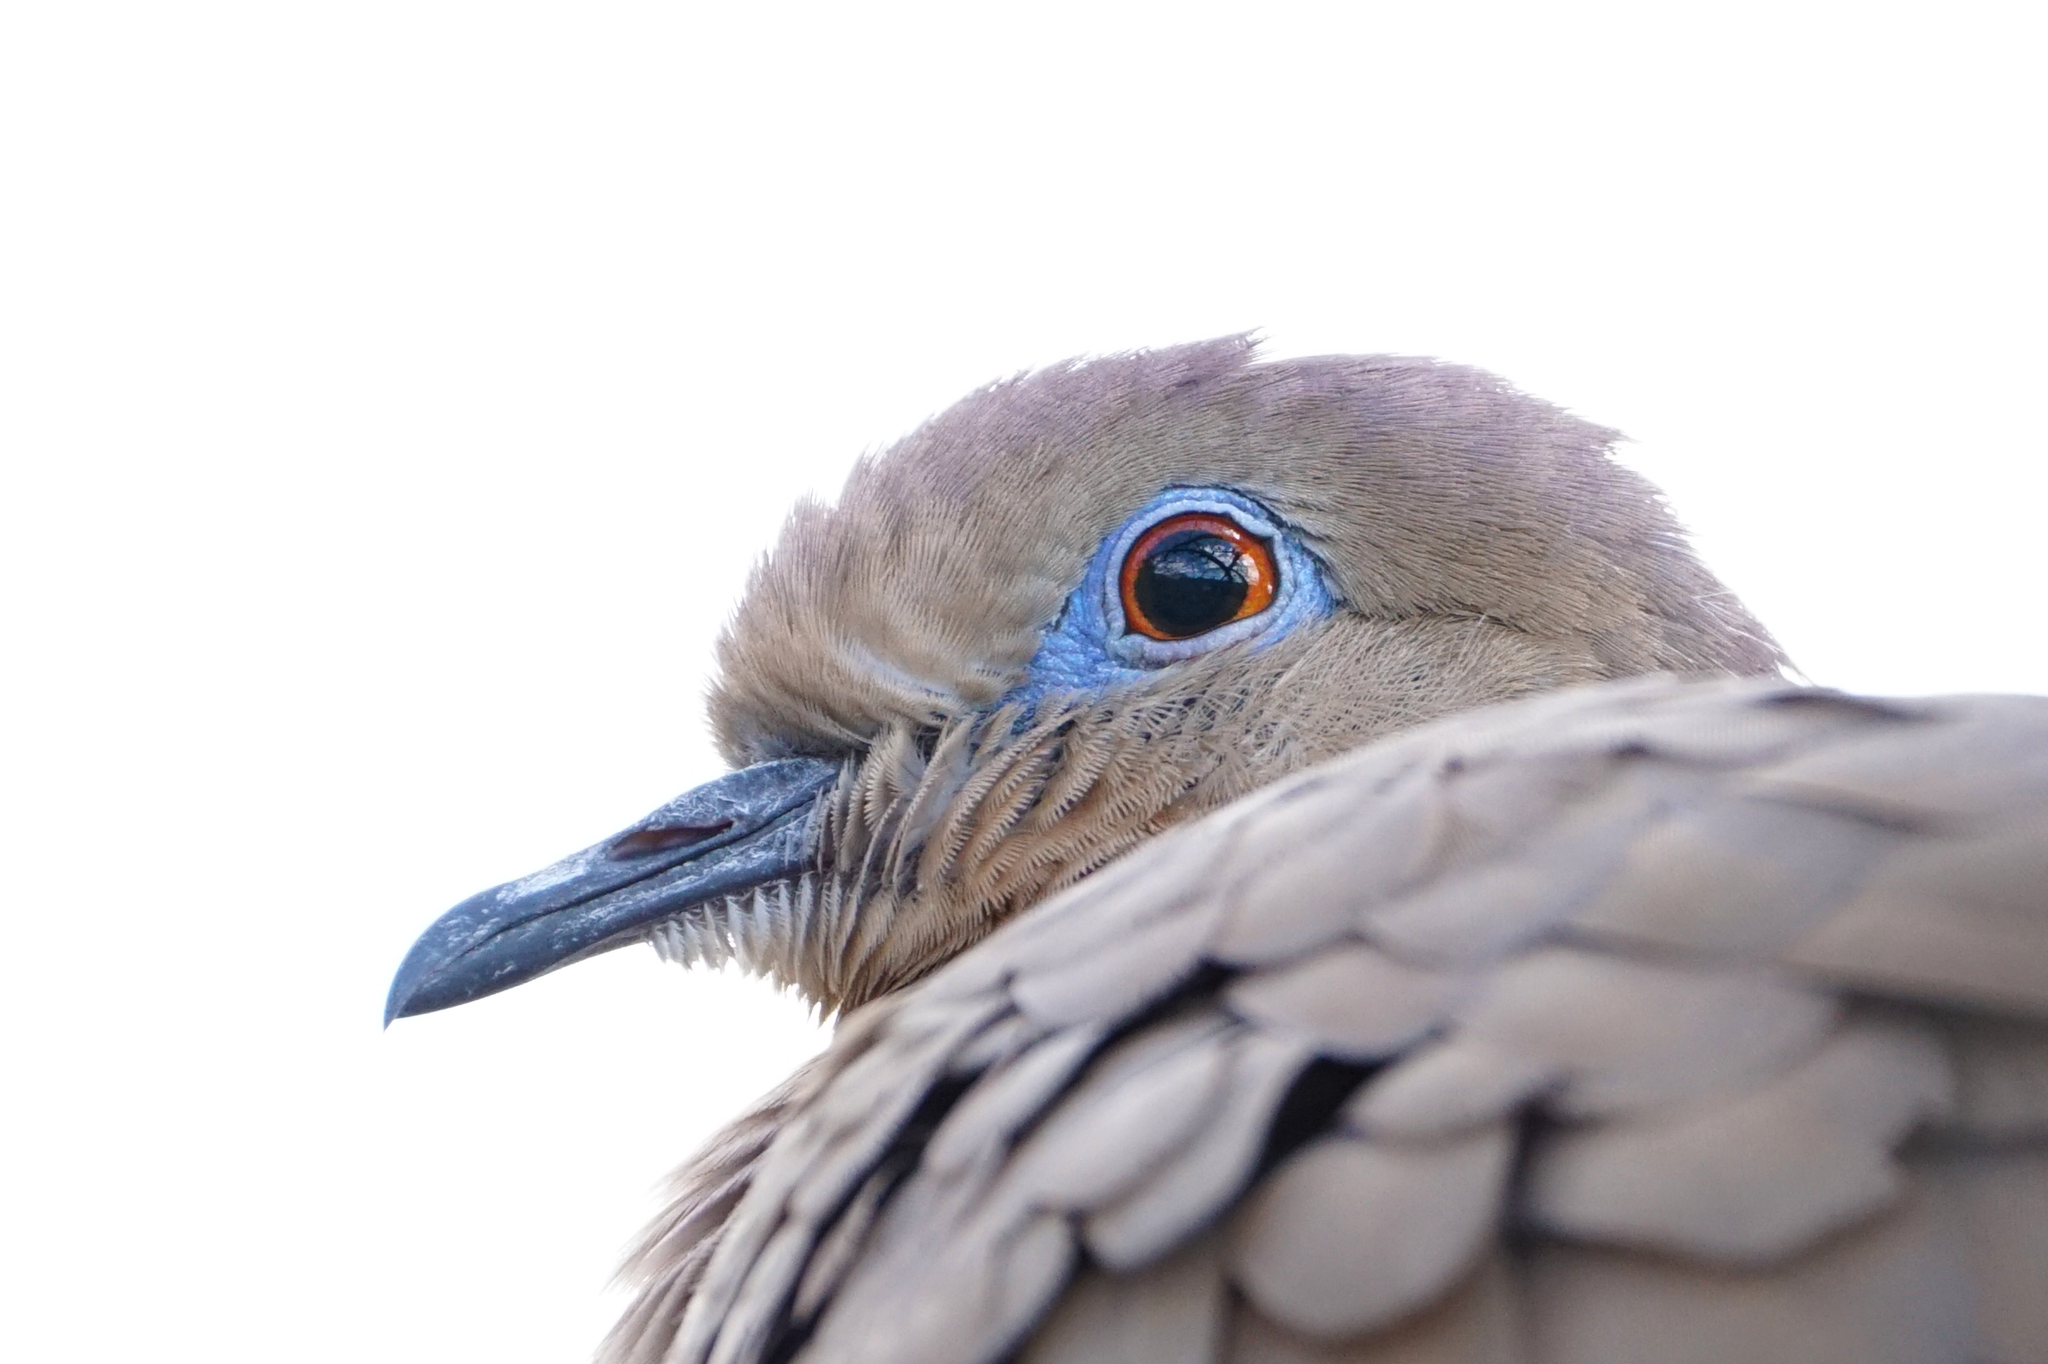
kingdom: Animalia
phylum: Chordata
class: Aves
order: Columbiformes
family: Columbidae
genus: Zenaida
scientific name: Zenaida asiatica
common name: White-winged dove
